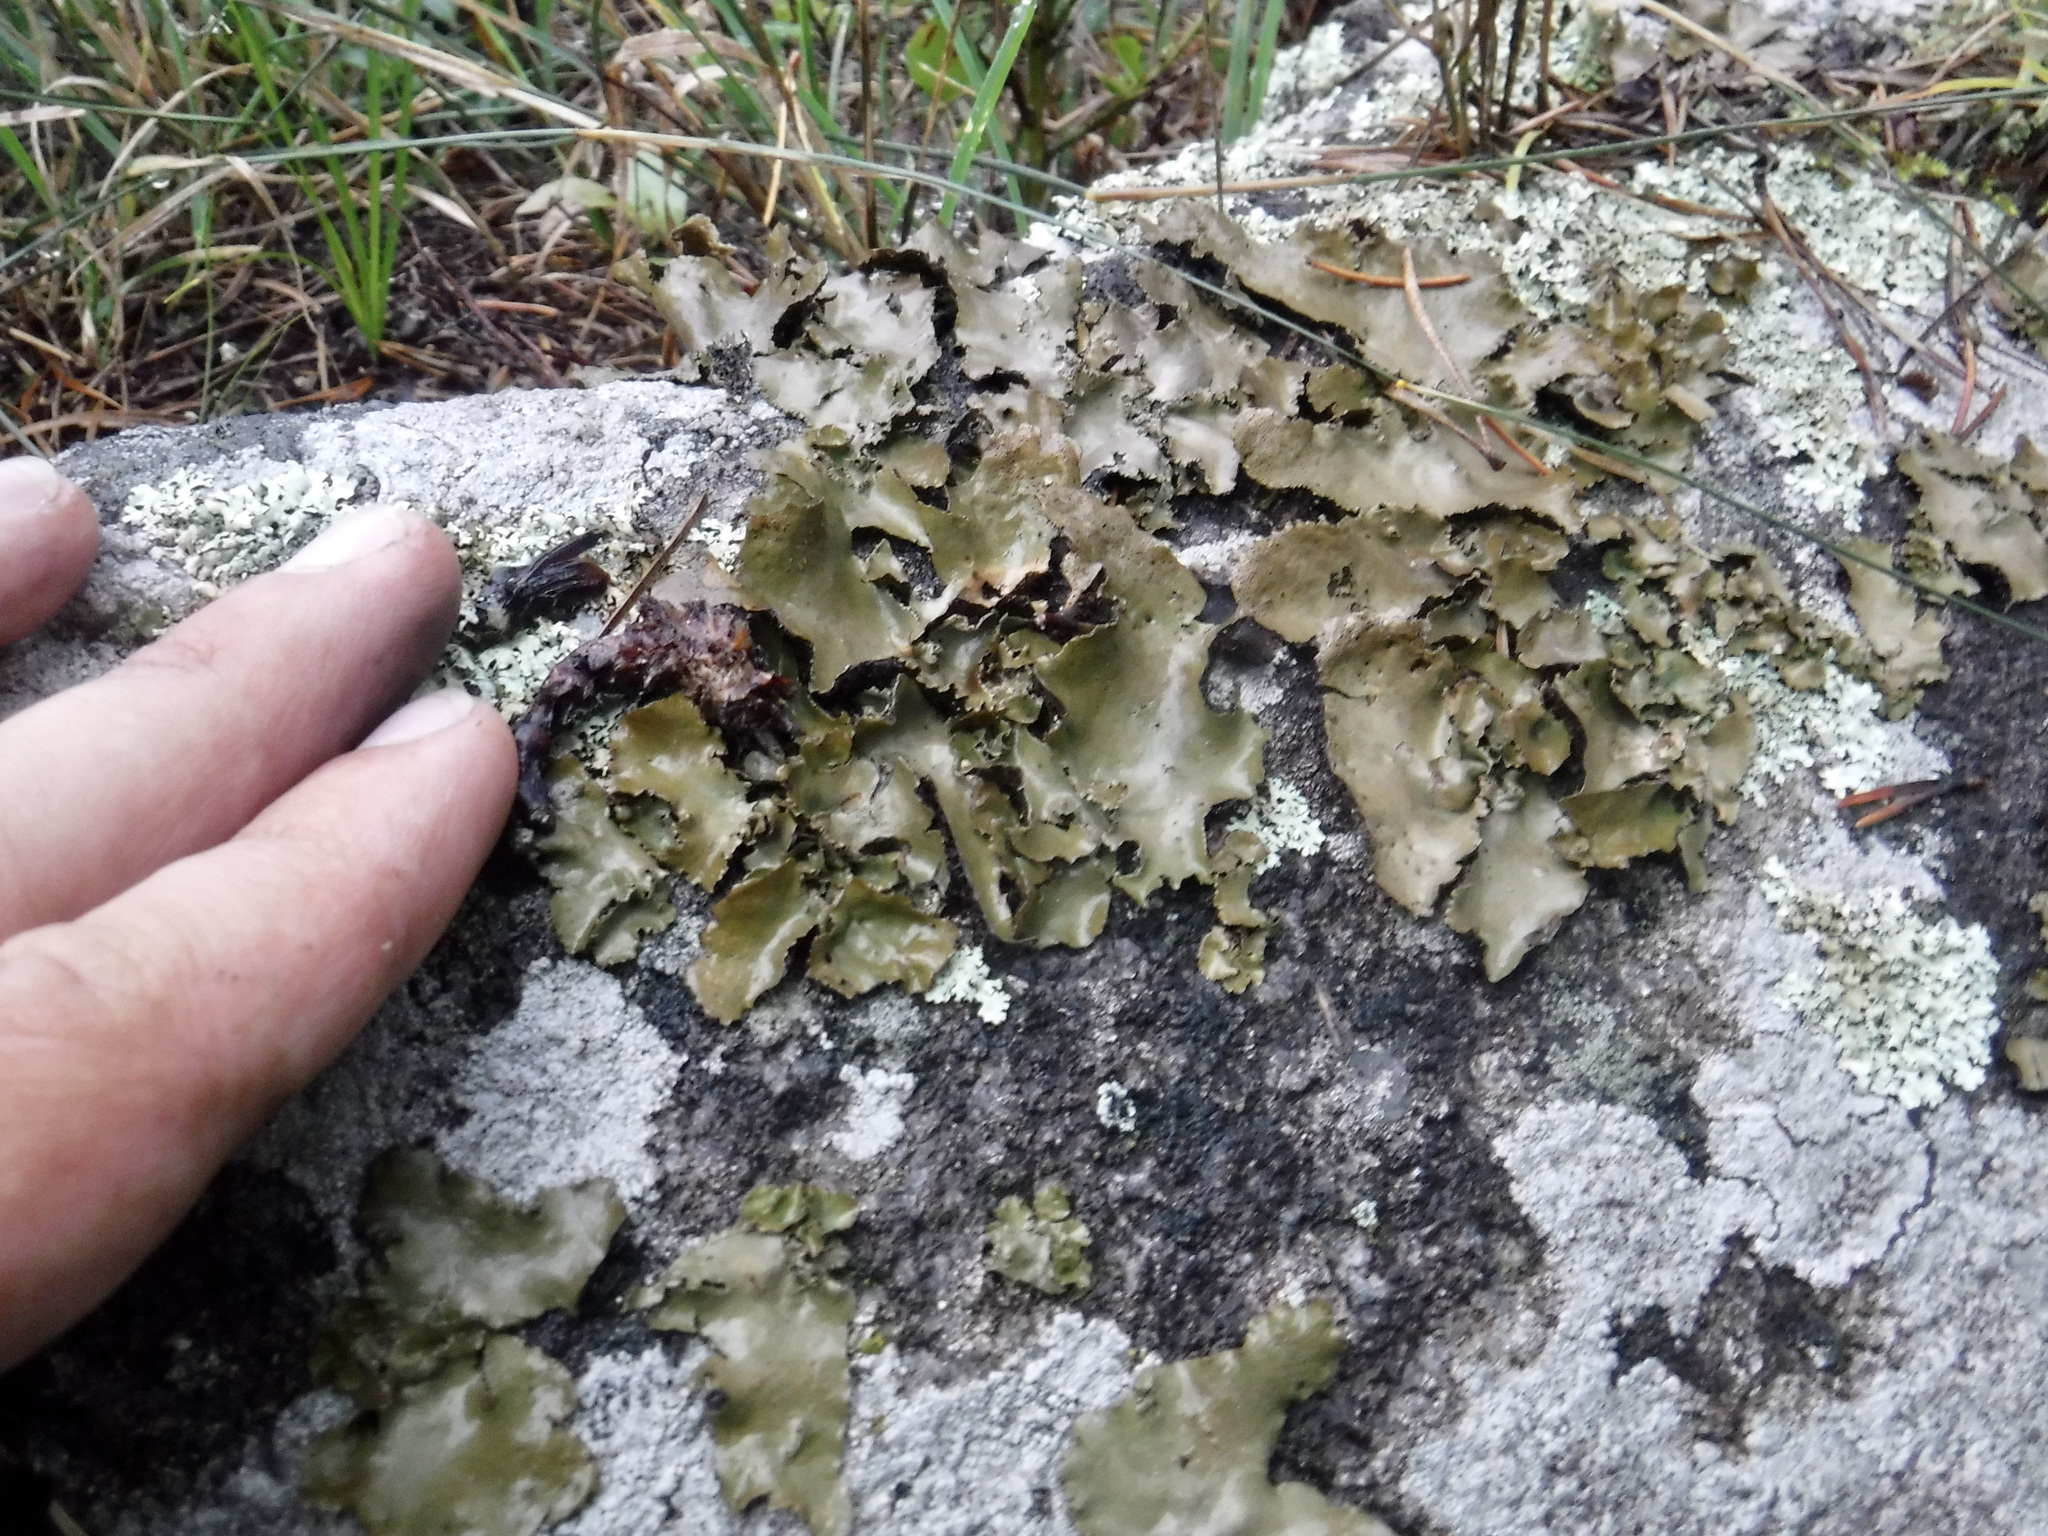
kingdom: Fungi
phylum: Ascomycota
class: Lecanoromycetes
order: Umbilicariales
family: Umbilicariaceae
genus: Umbilicaria
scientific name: Umbilicaria muhlenbergii
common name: Lesser rocktripe
